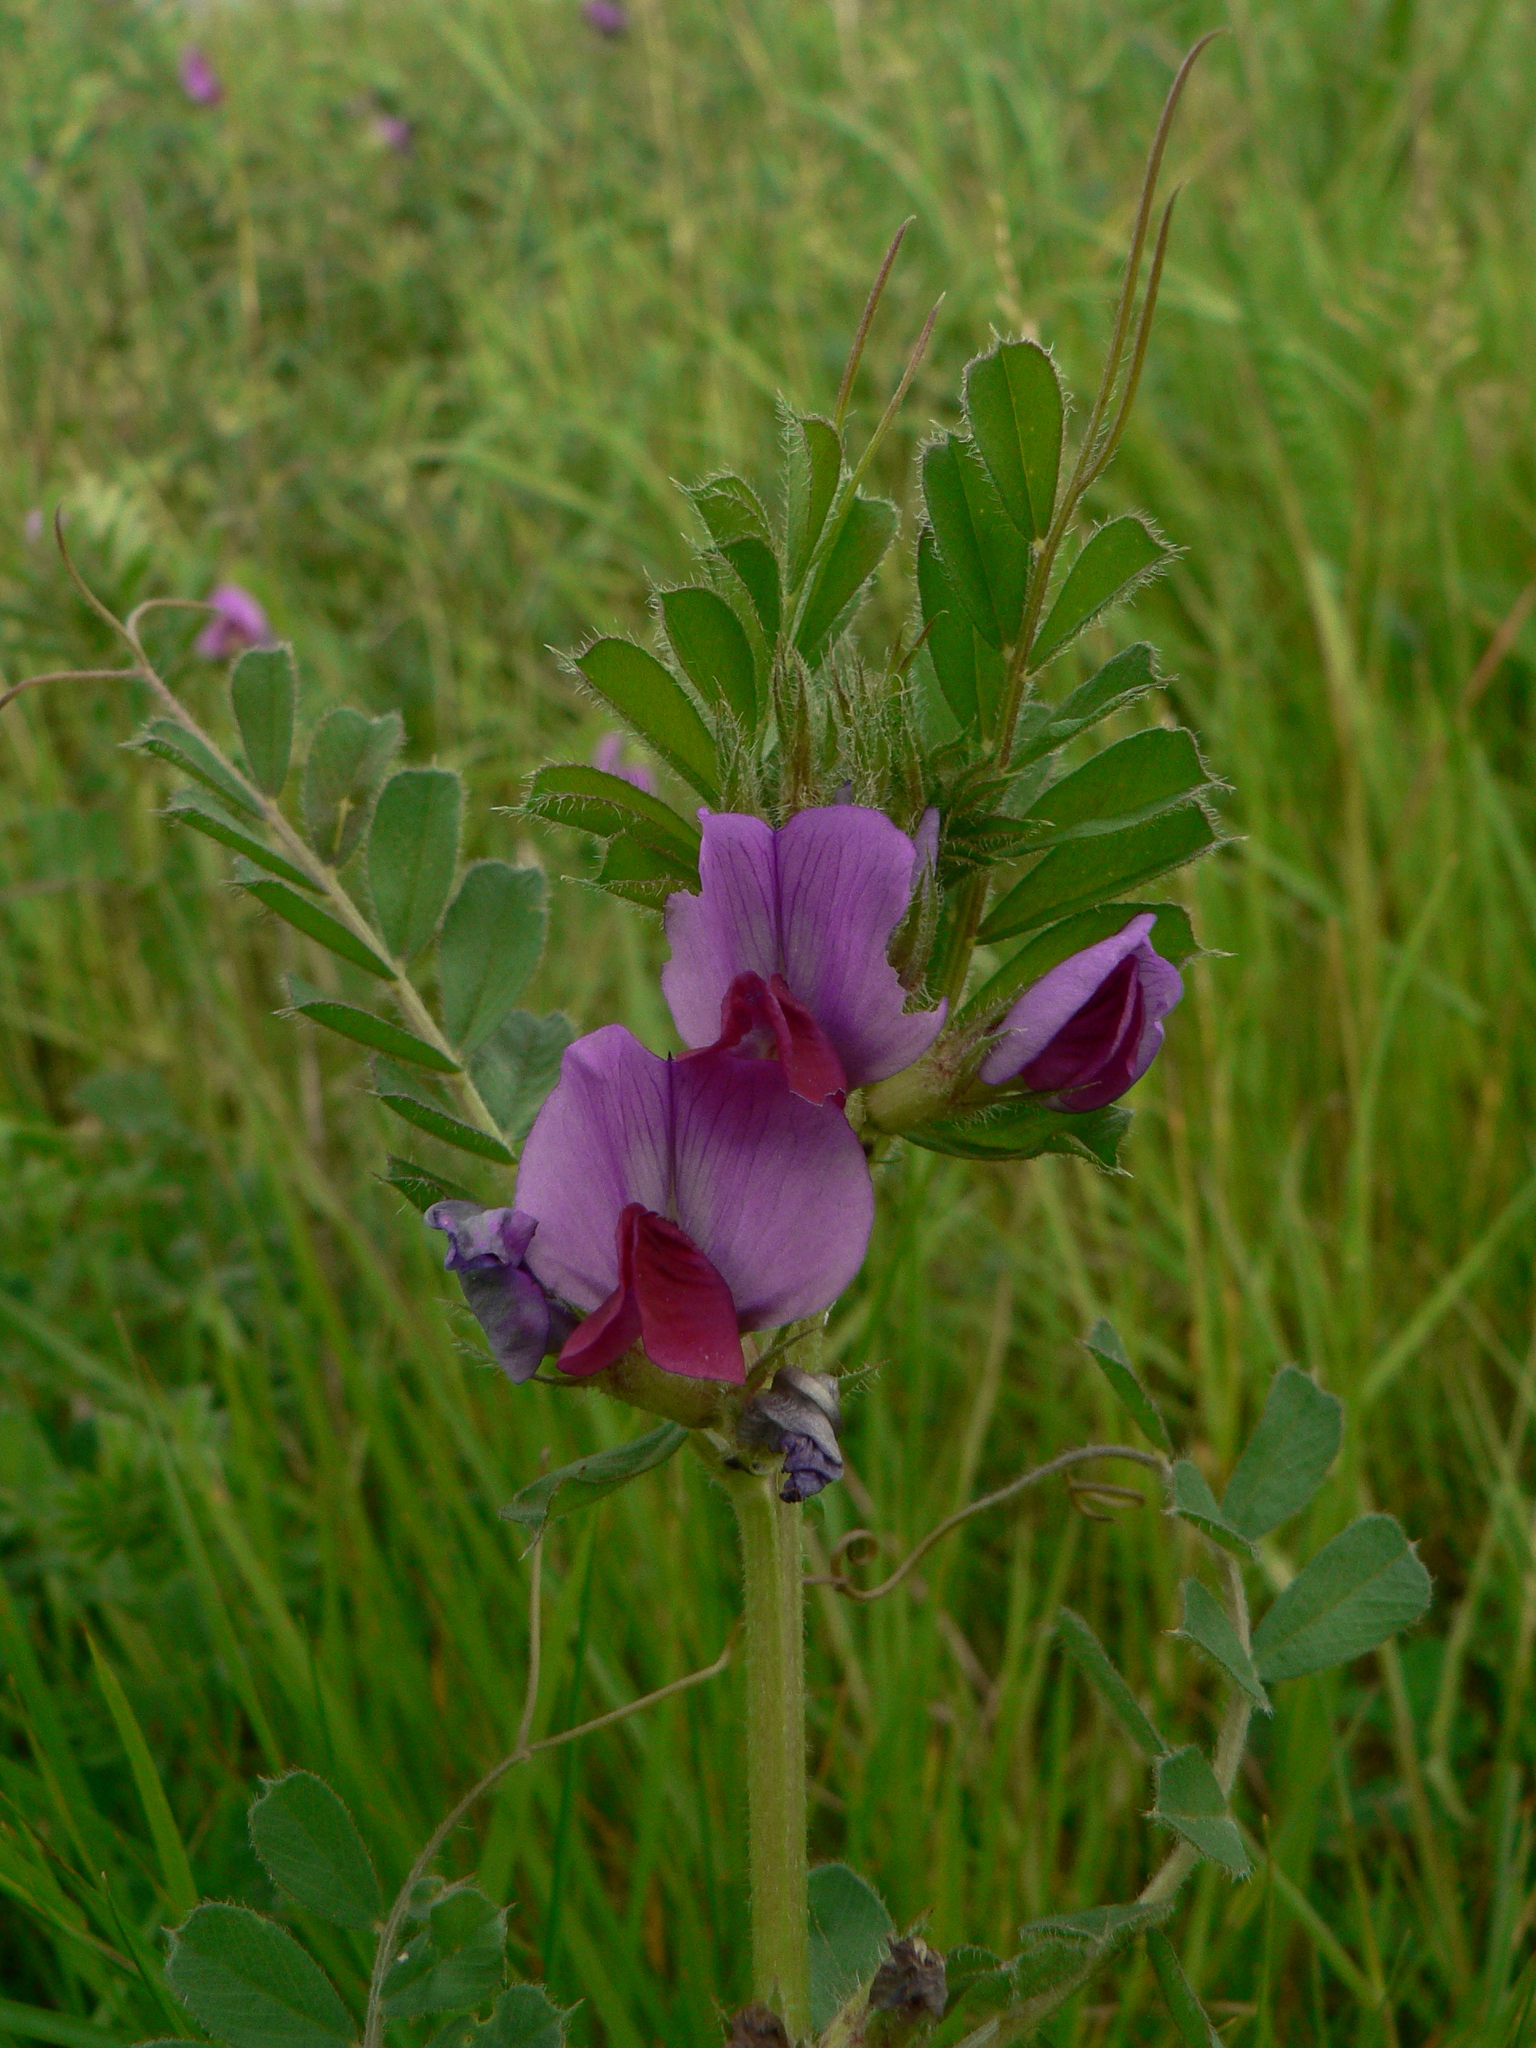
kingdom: Plantae
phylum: Tracheophyta
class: Magnoliopsida
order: Fabales
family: Fabaceae
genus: Vicia
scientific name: Vicia sativa
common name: Garden vetch
